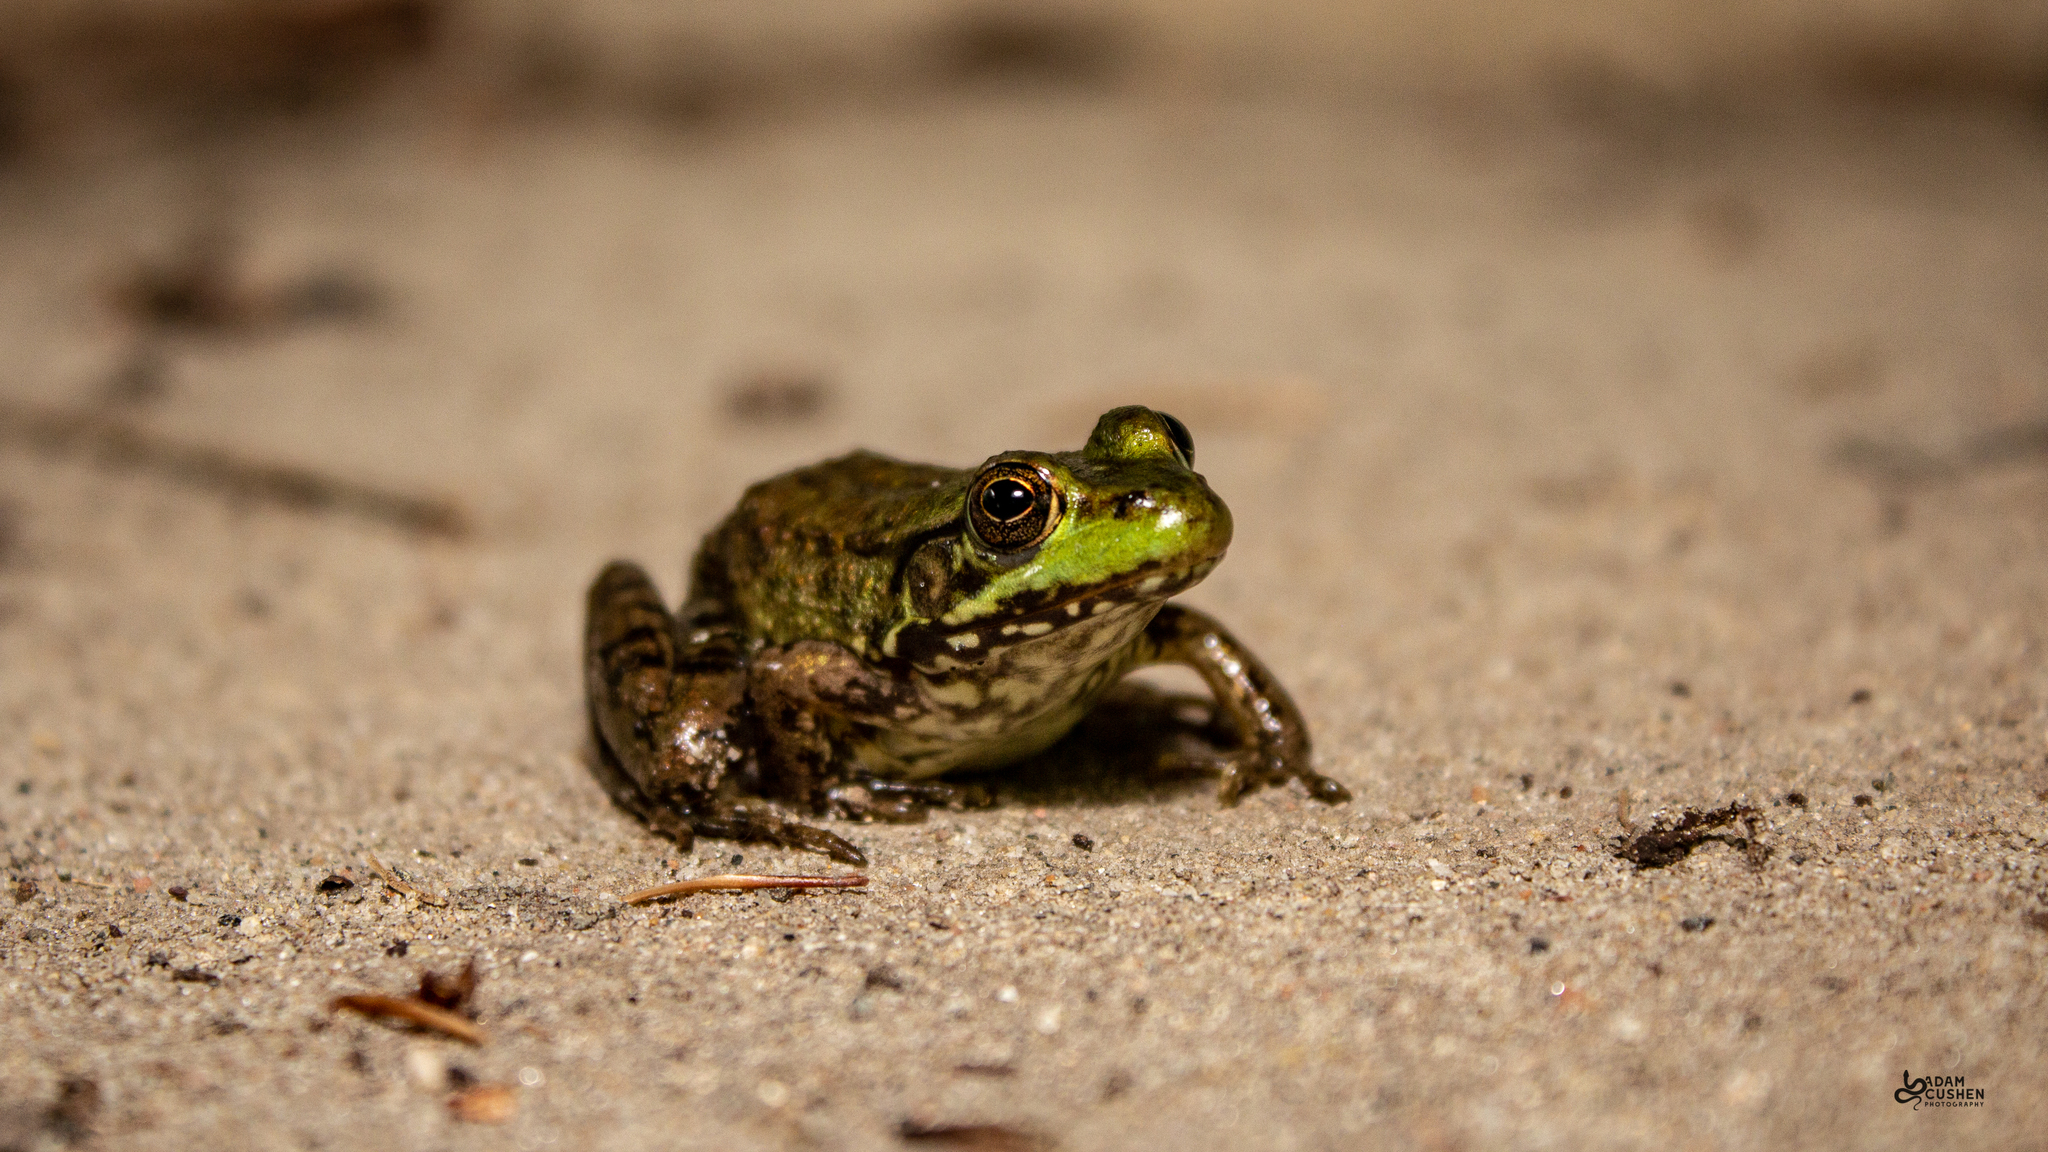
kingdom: Animalia
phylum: Chordata
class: Amphibia
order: Anura
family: Ranidae
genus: Lithobates
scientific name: Lithobates clamitans
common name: Green frog
